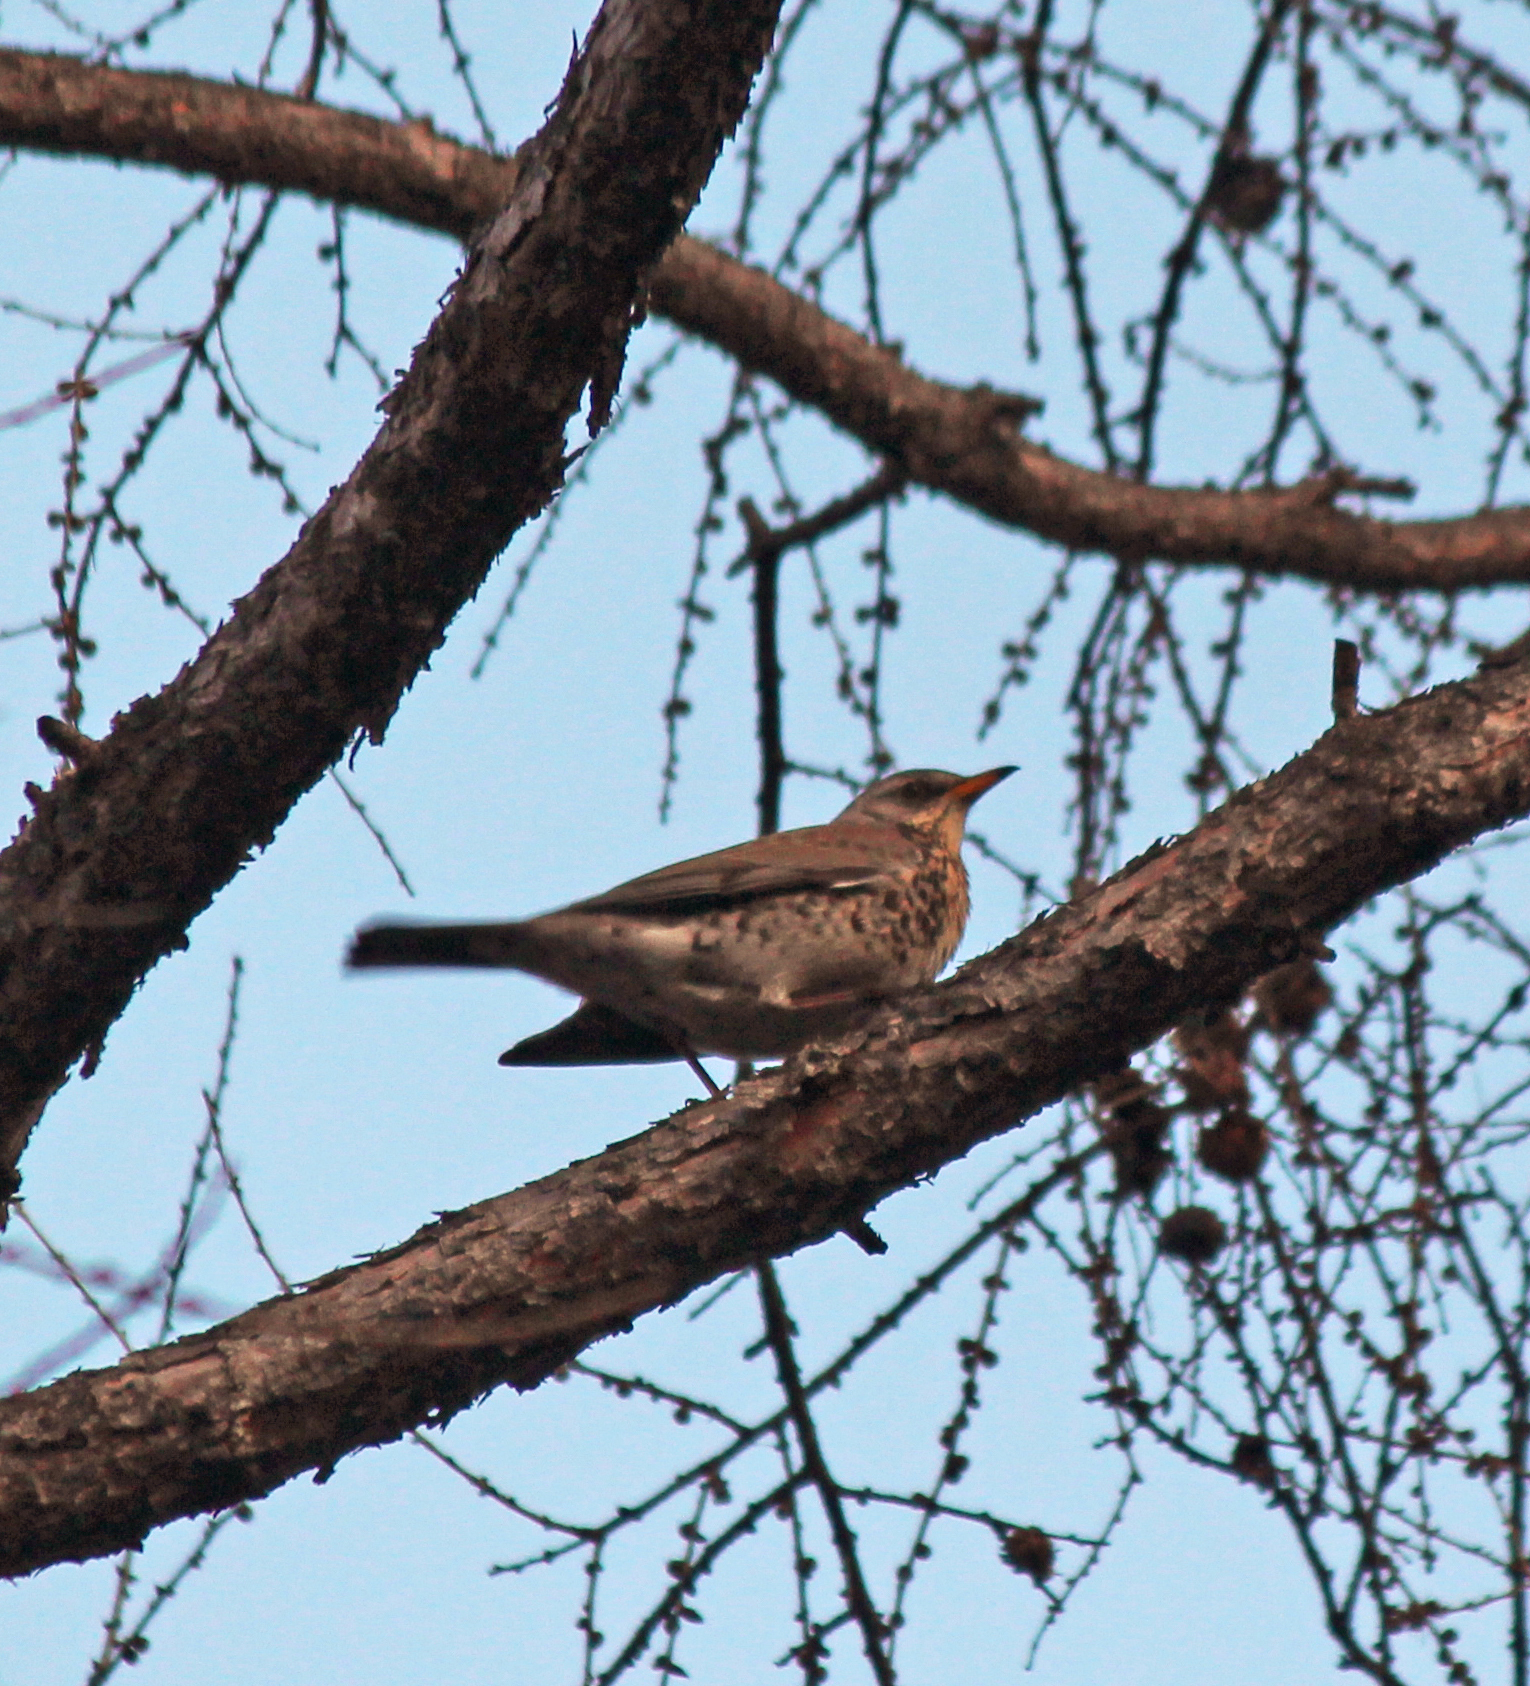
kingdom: Animalia
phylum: Chordata
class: Aves
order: Passeriformes
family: Turdidae
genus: Turdus
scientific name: Turdus pilaris
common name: Fieldfare
